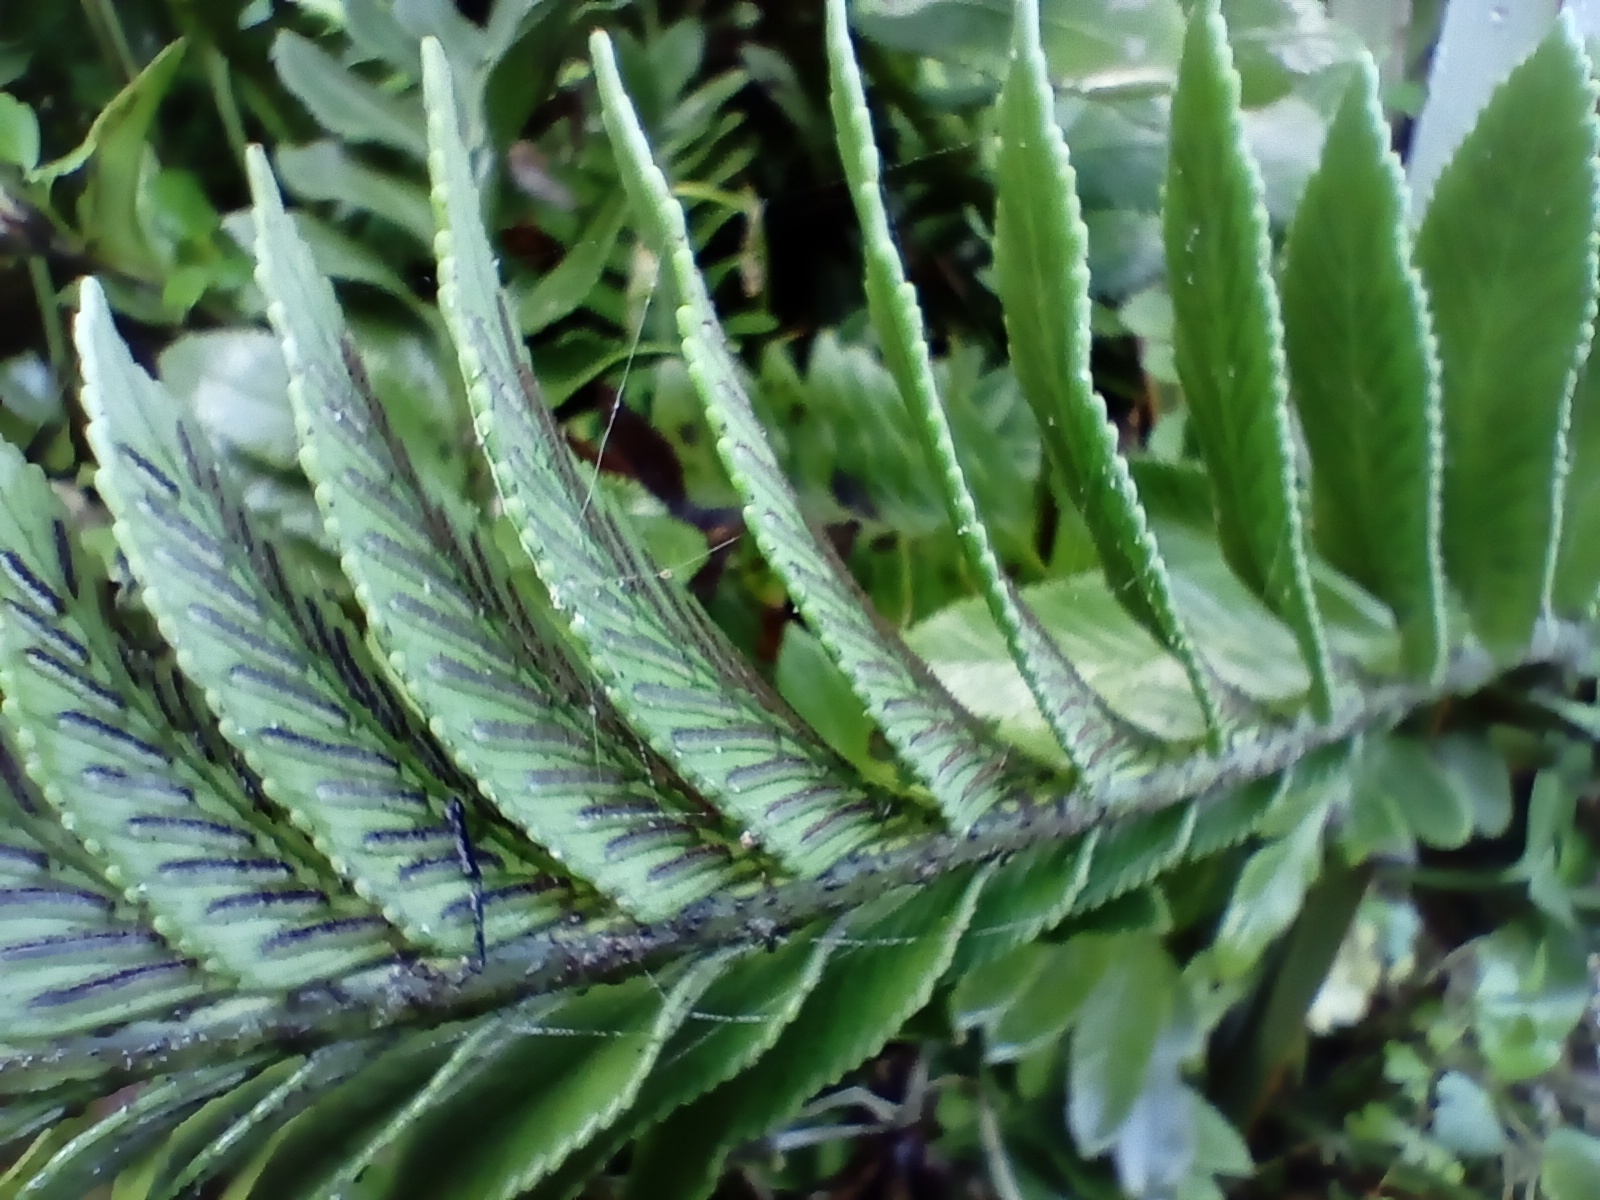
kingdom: Plantae
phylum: Tracheophyta
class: Polypodiopsida
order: Polypodiales
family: Aspleniaceae
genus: Asplenium
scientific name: Asplenium obtusatum
